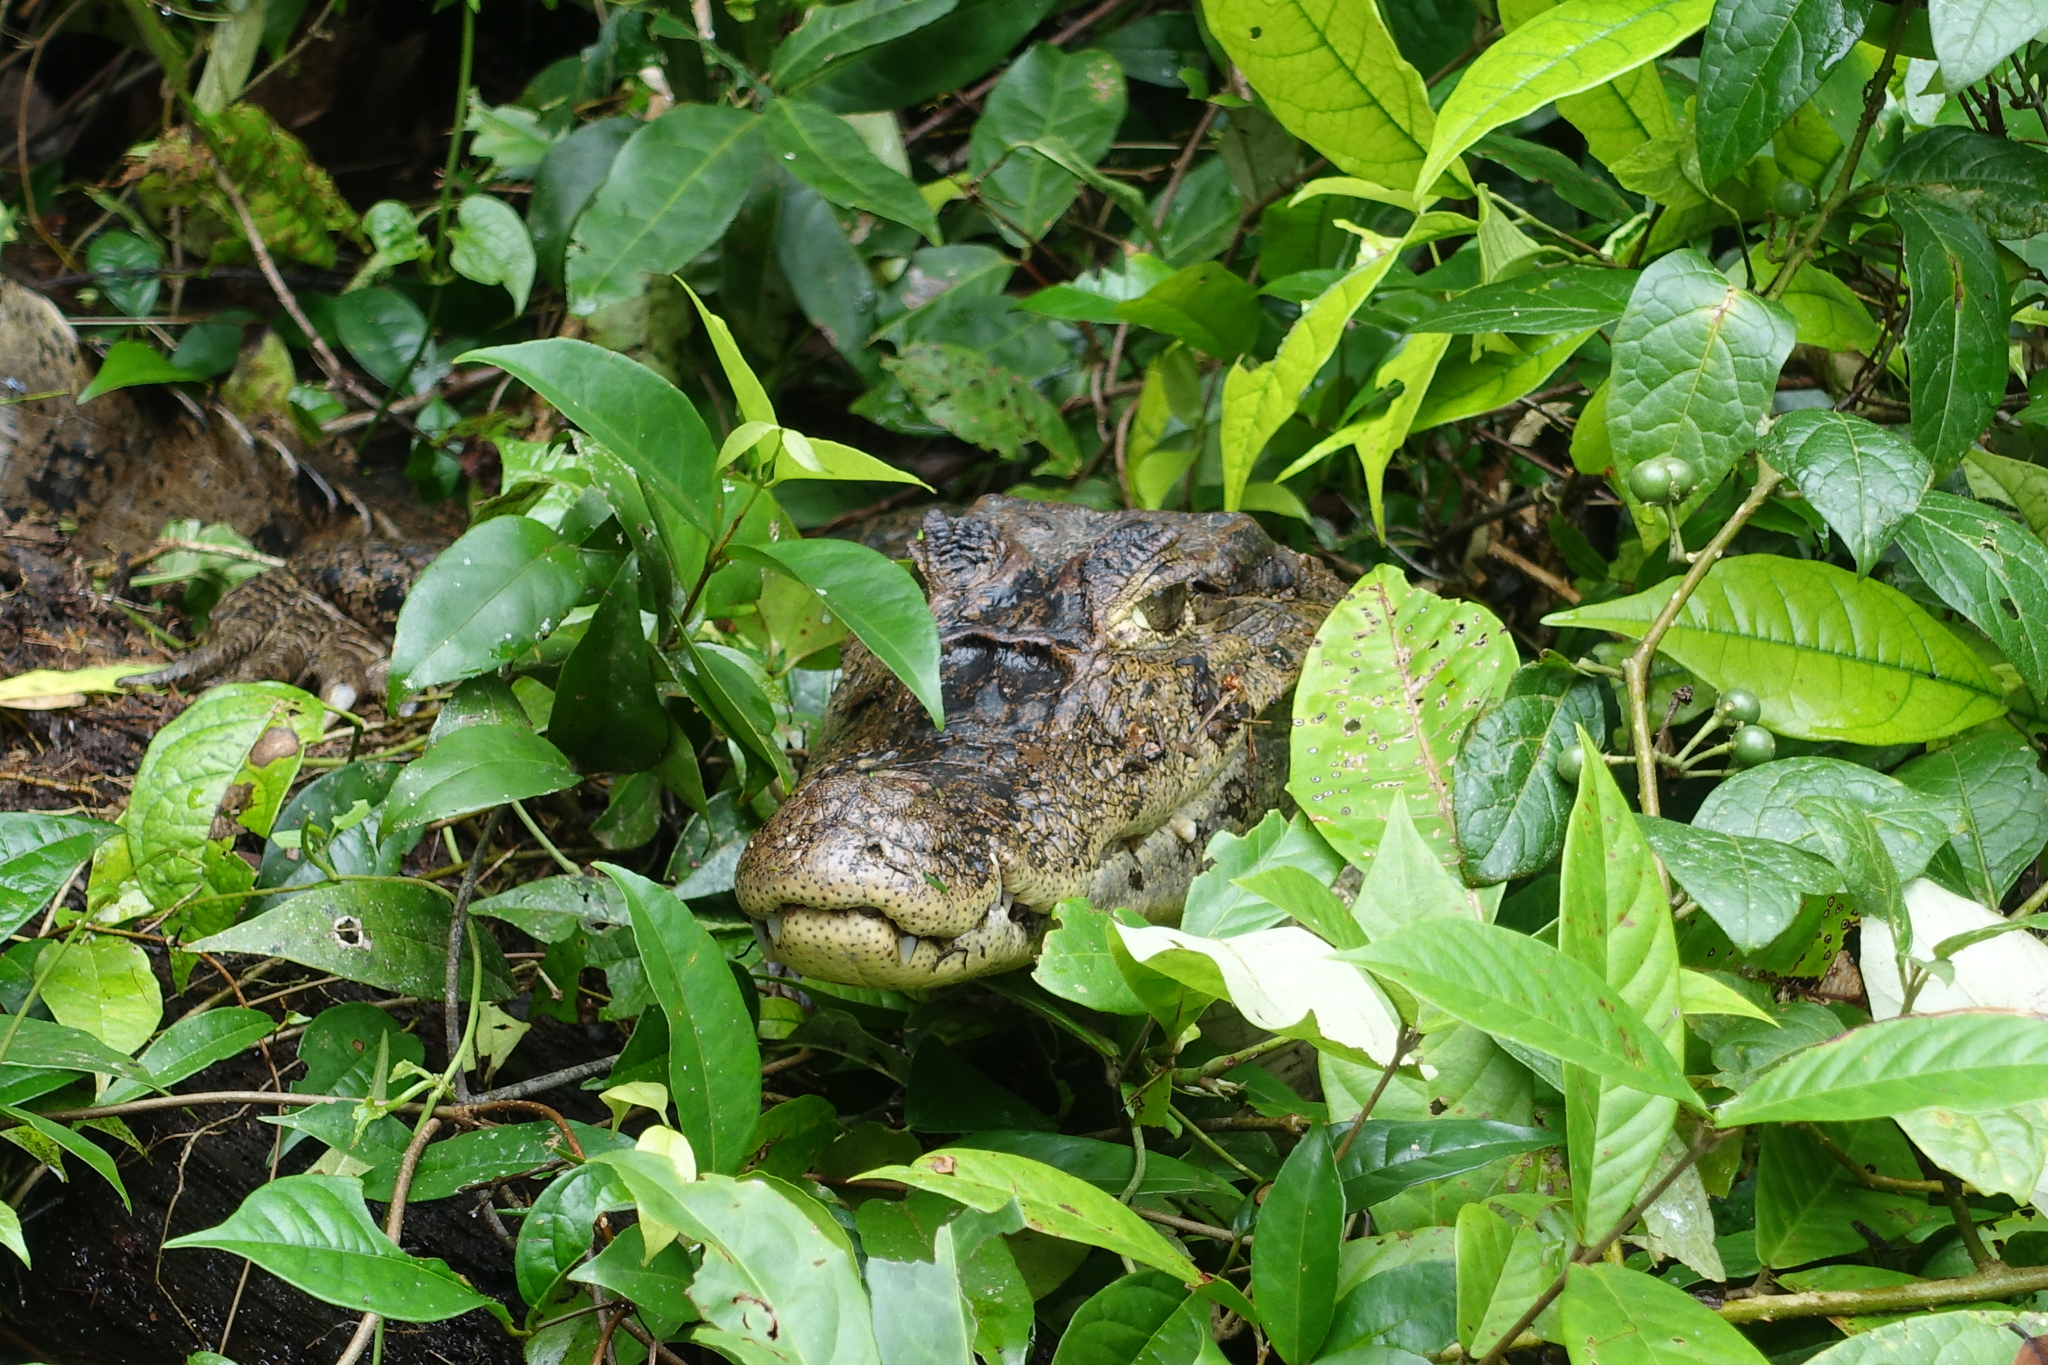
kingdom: Animalia
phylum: Chordata
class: Crocodylia
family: Alligatoridae
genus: Caiman
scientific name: Caiman crocodilus
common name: Common caiman
